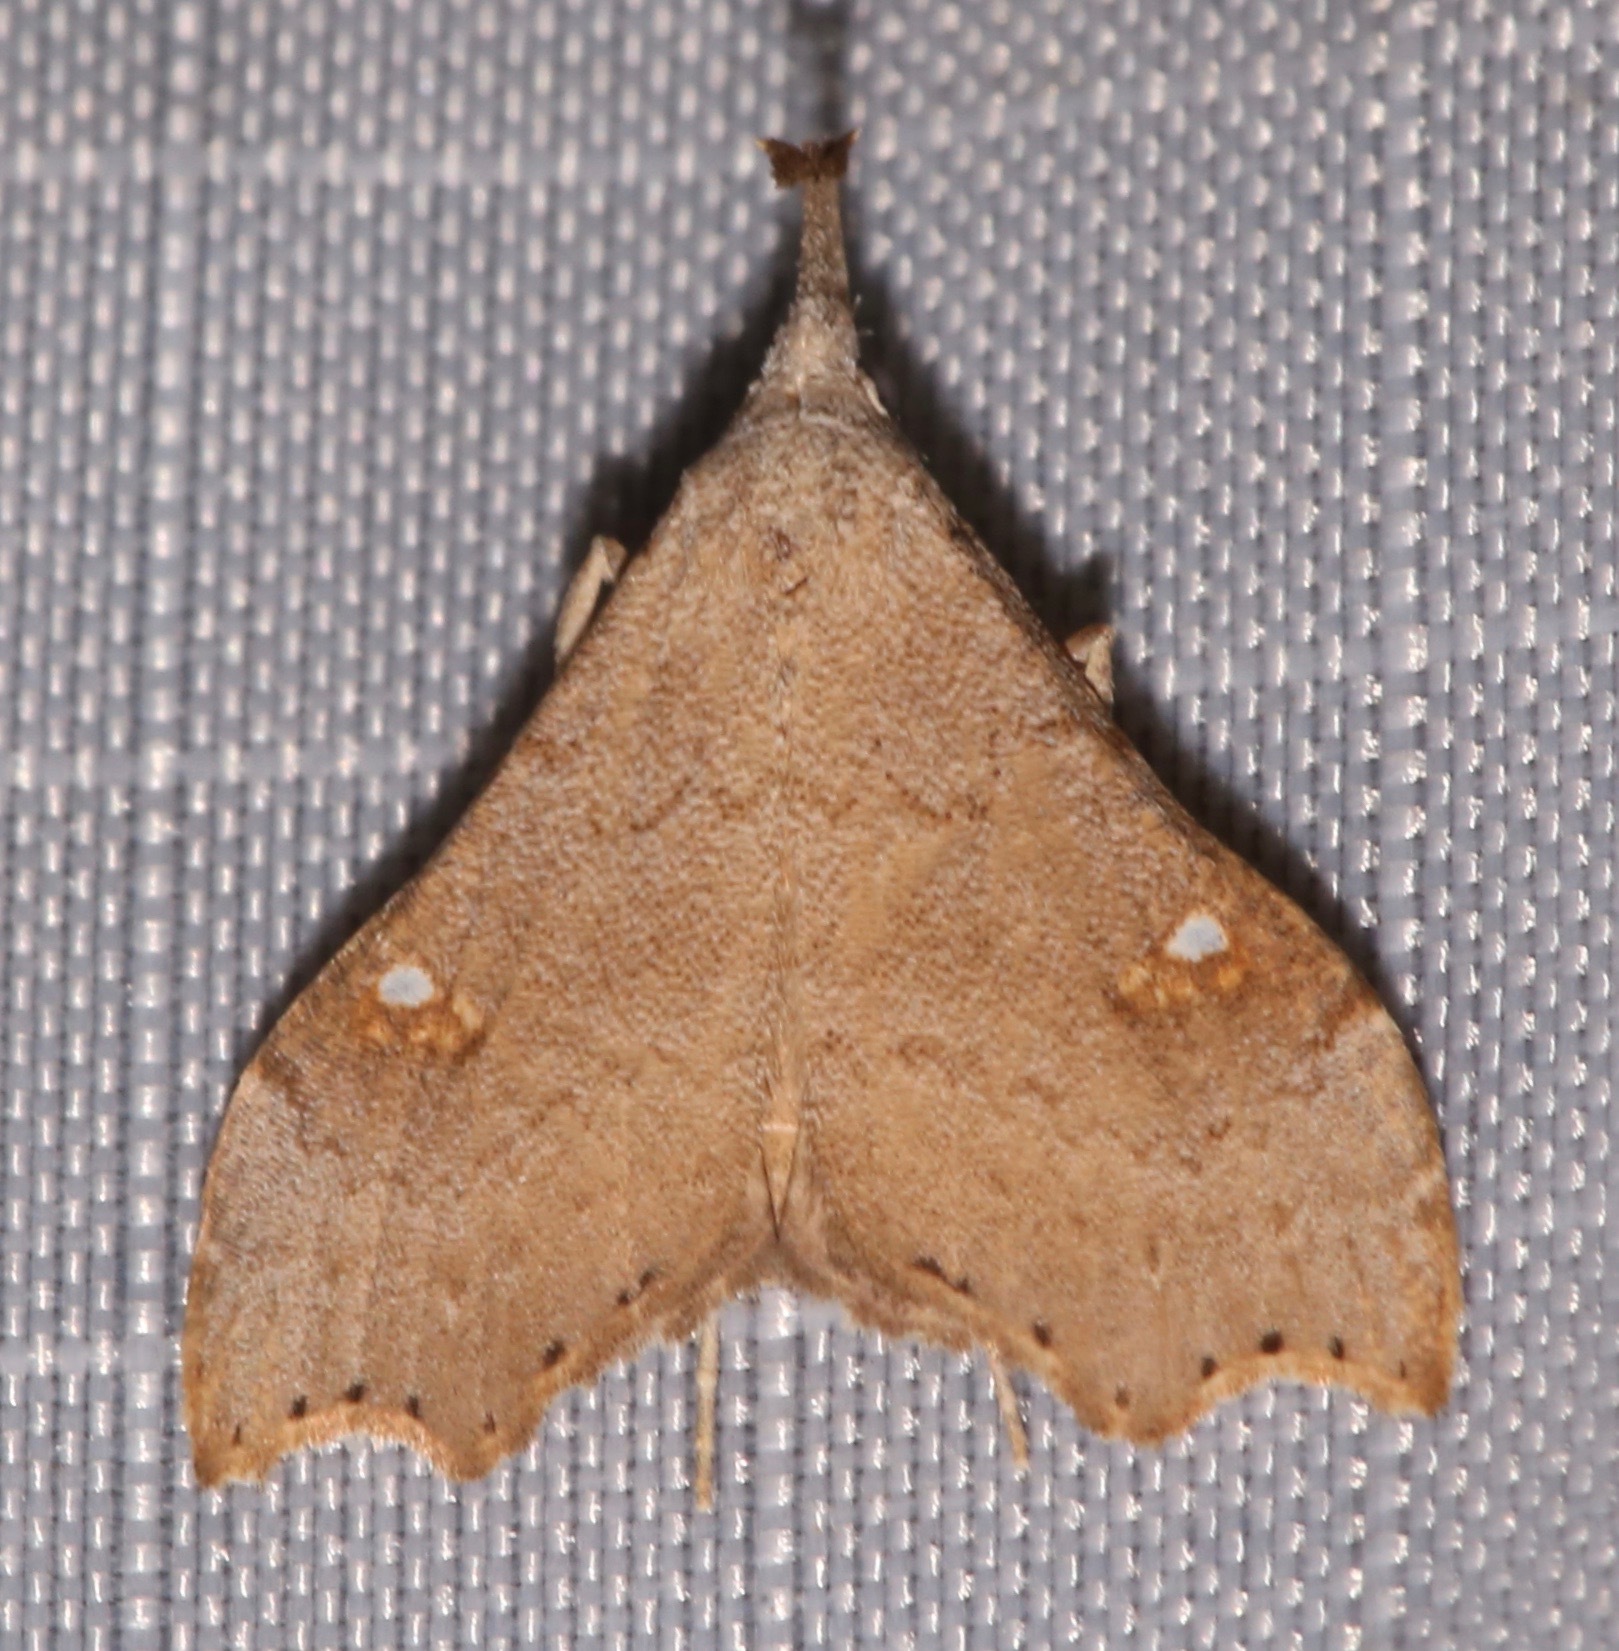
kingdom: Animalia
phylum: Arthropoda
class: Insecta
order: Lepidoptera
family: Erebidae
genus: Redectis
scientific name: Redectis vitrea
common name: White-spotted redectis
